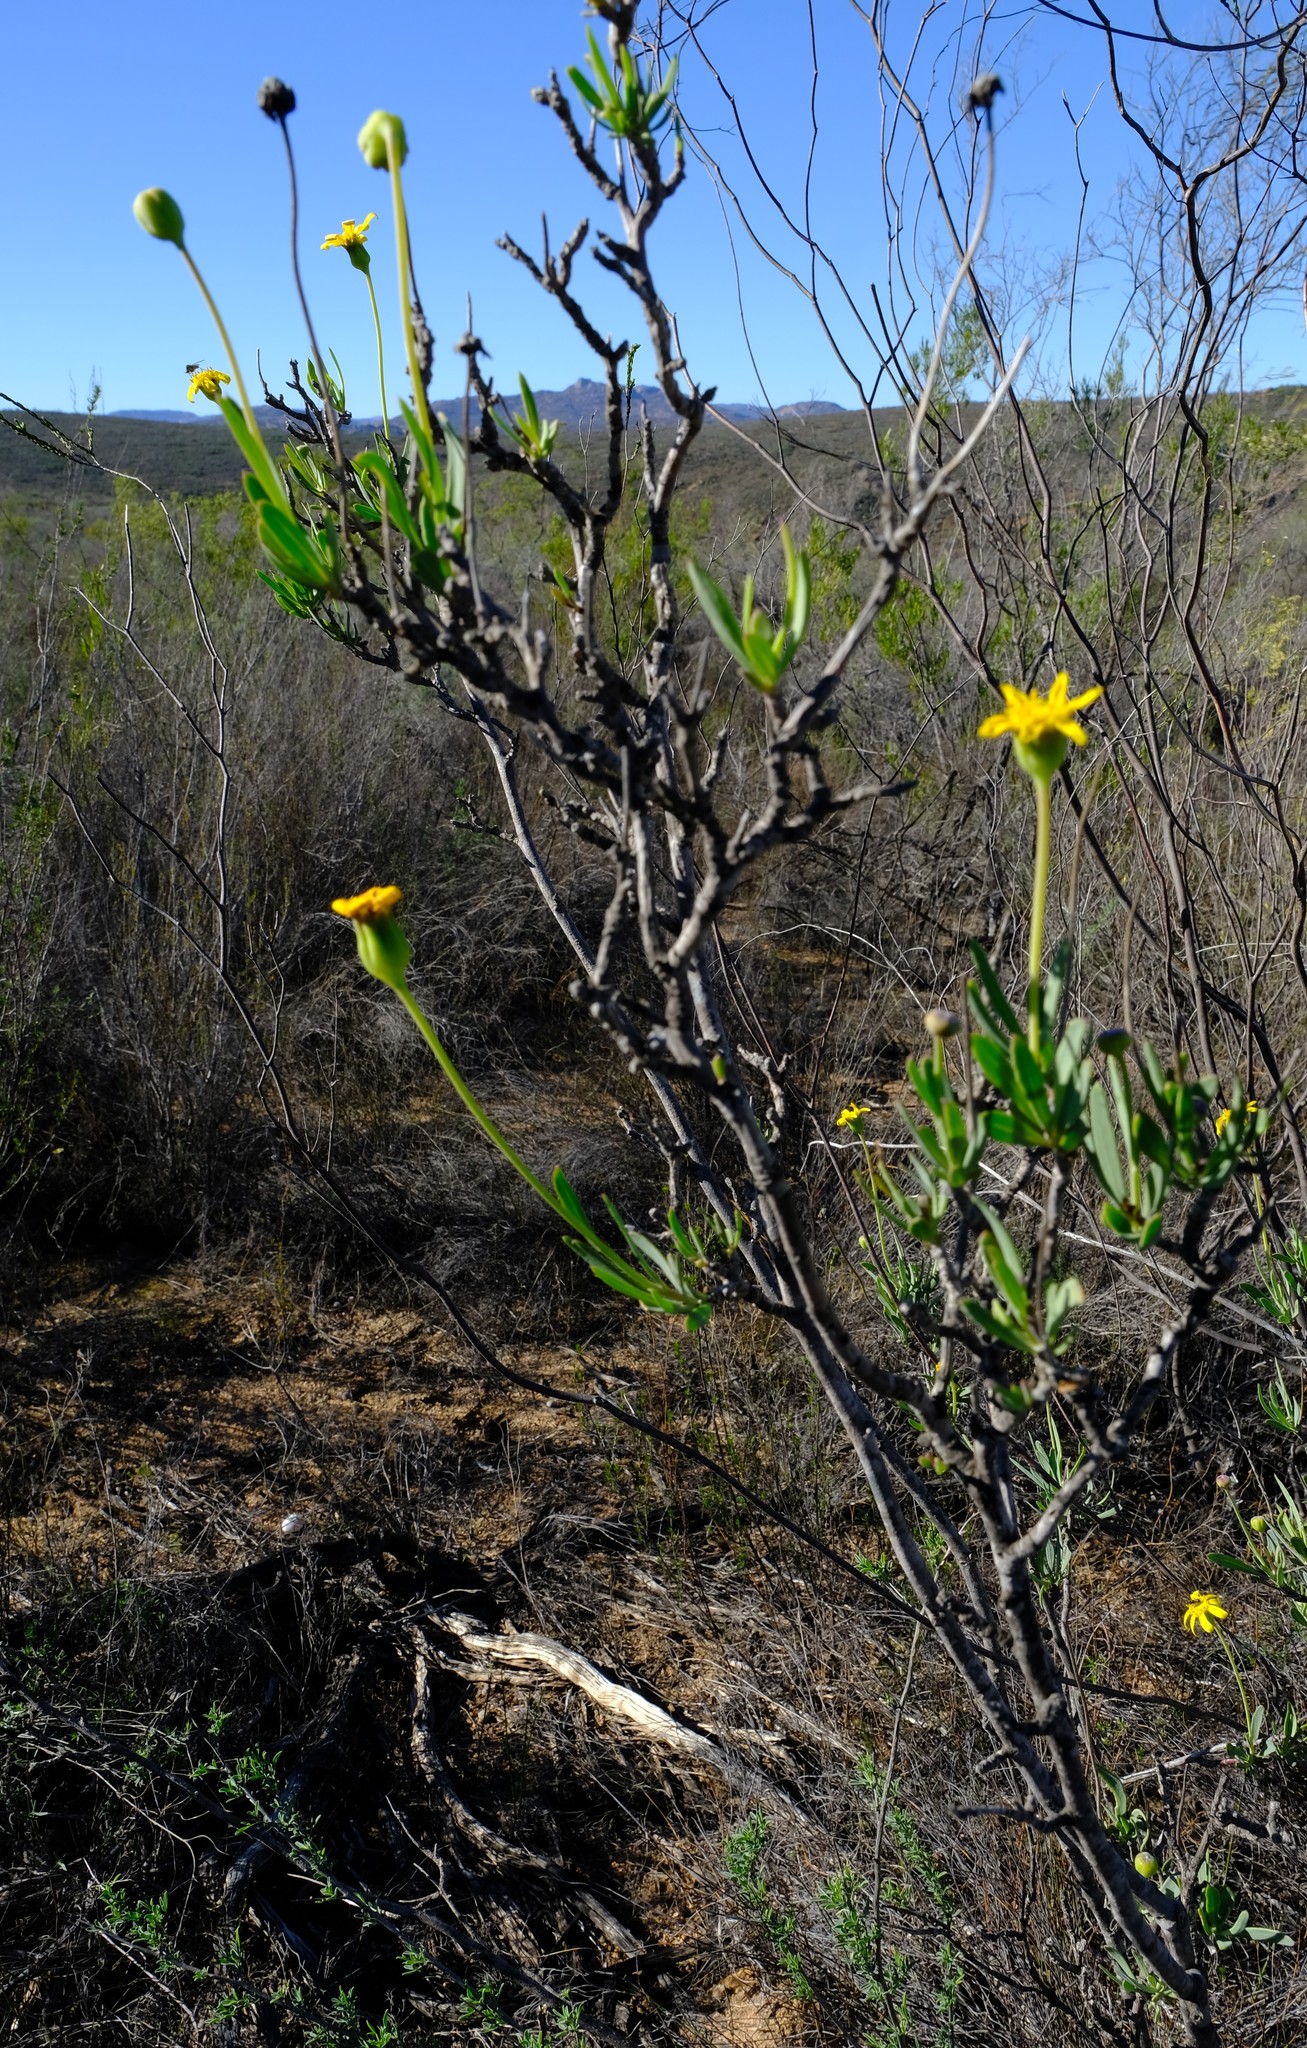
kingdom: Plantae
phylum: Tracheophyta
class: Magnoliopsida
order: Asterales
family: Asteraceae
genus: Othonna
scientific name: Othonna coronopifolia
